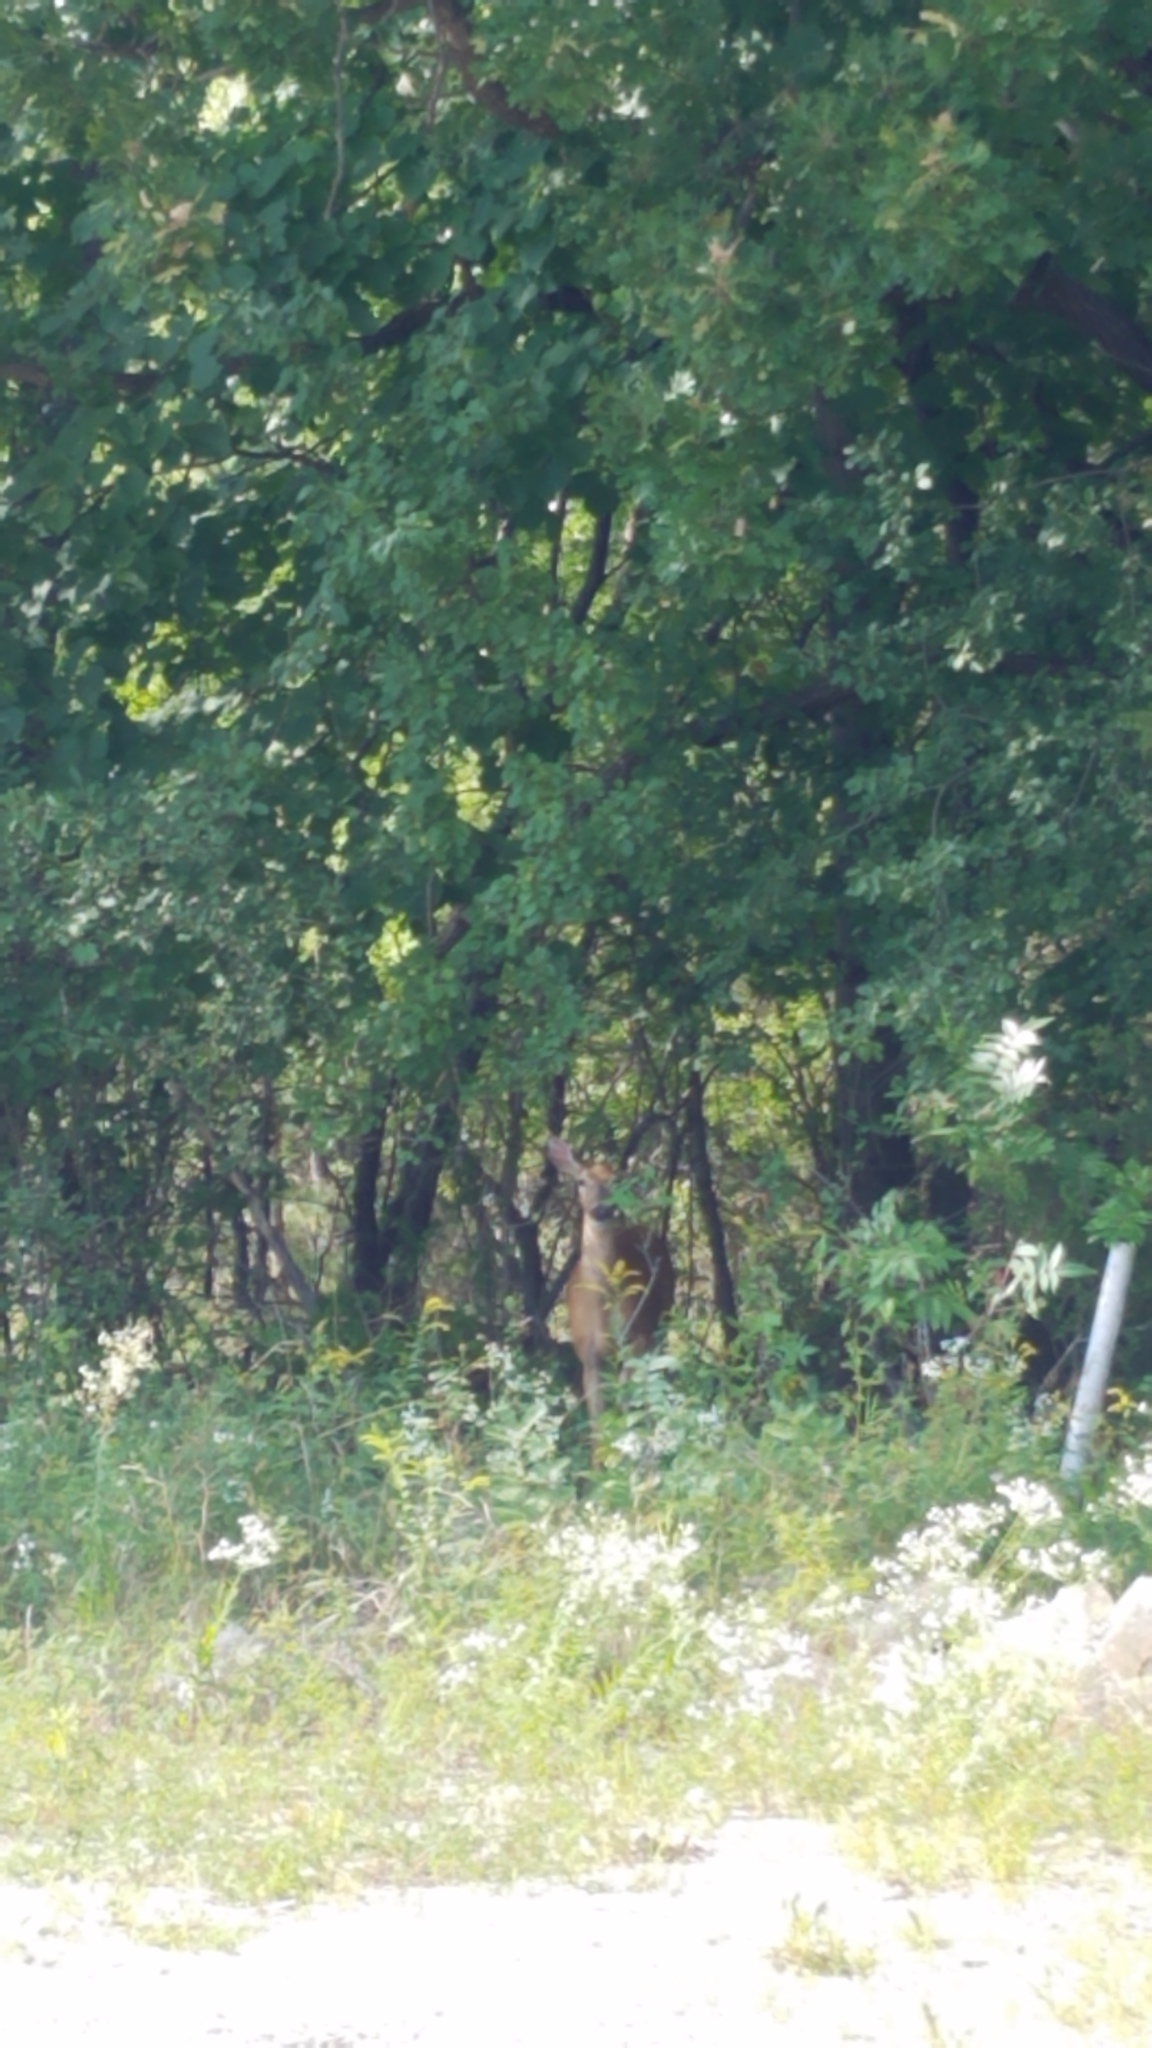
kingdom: Animalia
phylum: Chordata
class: Mammalia
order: Artiodactyla
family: Cervidae
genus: Odocoileus
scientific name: Odocoileus virginianus
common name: White-tailed deer
